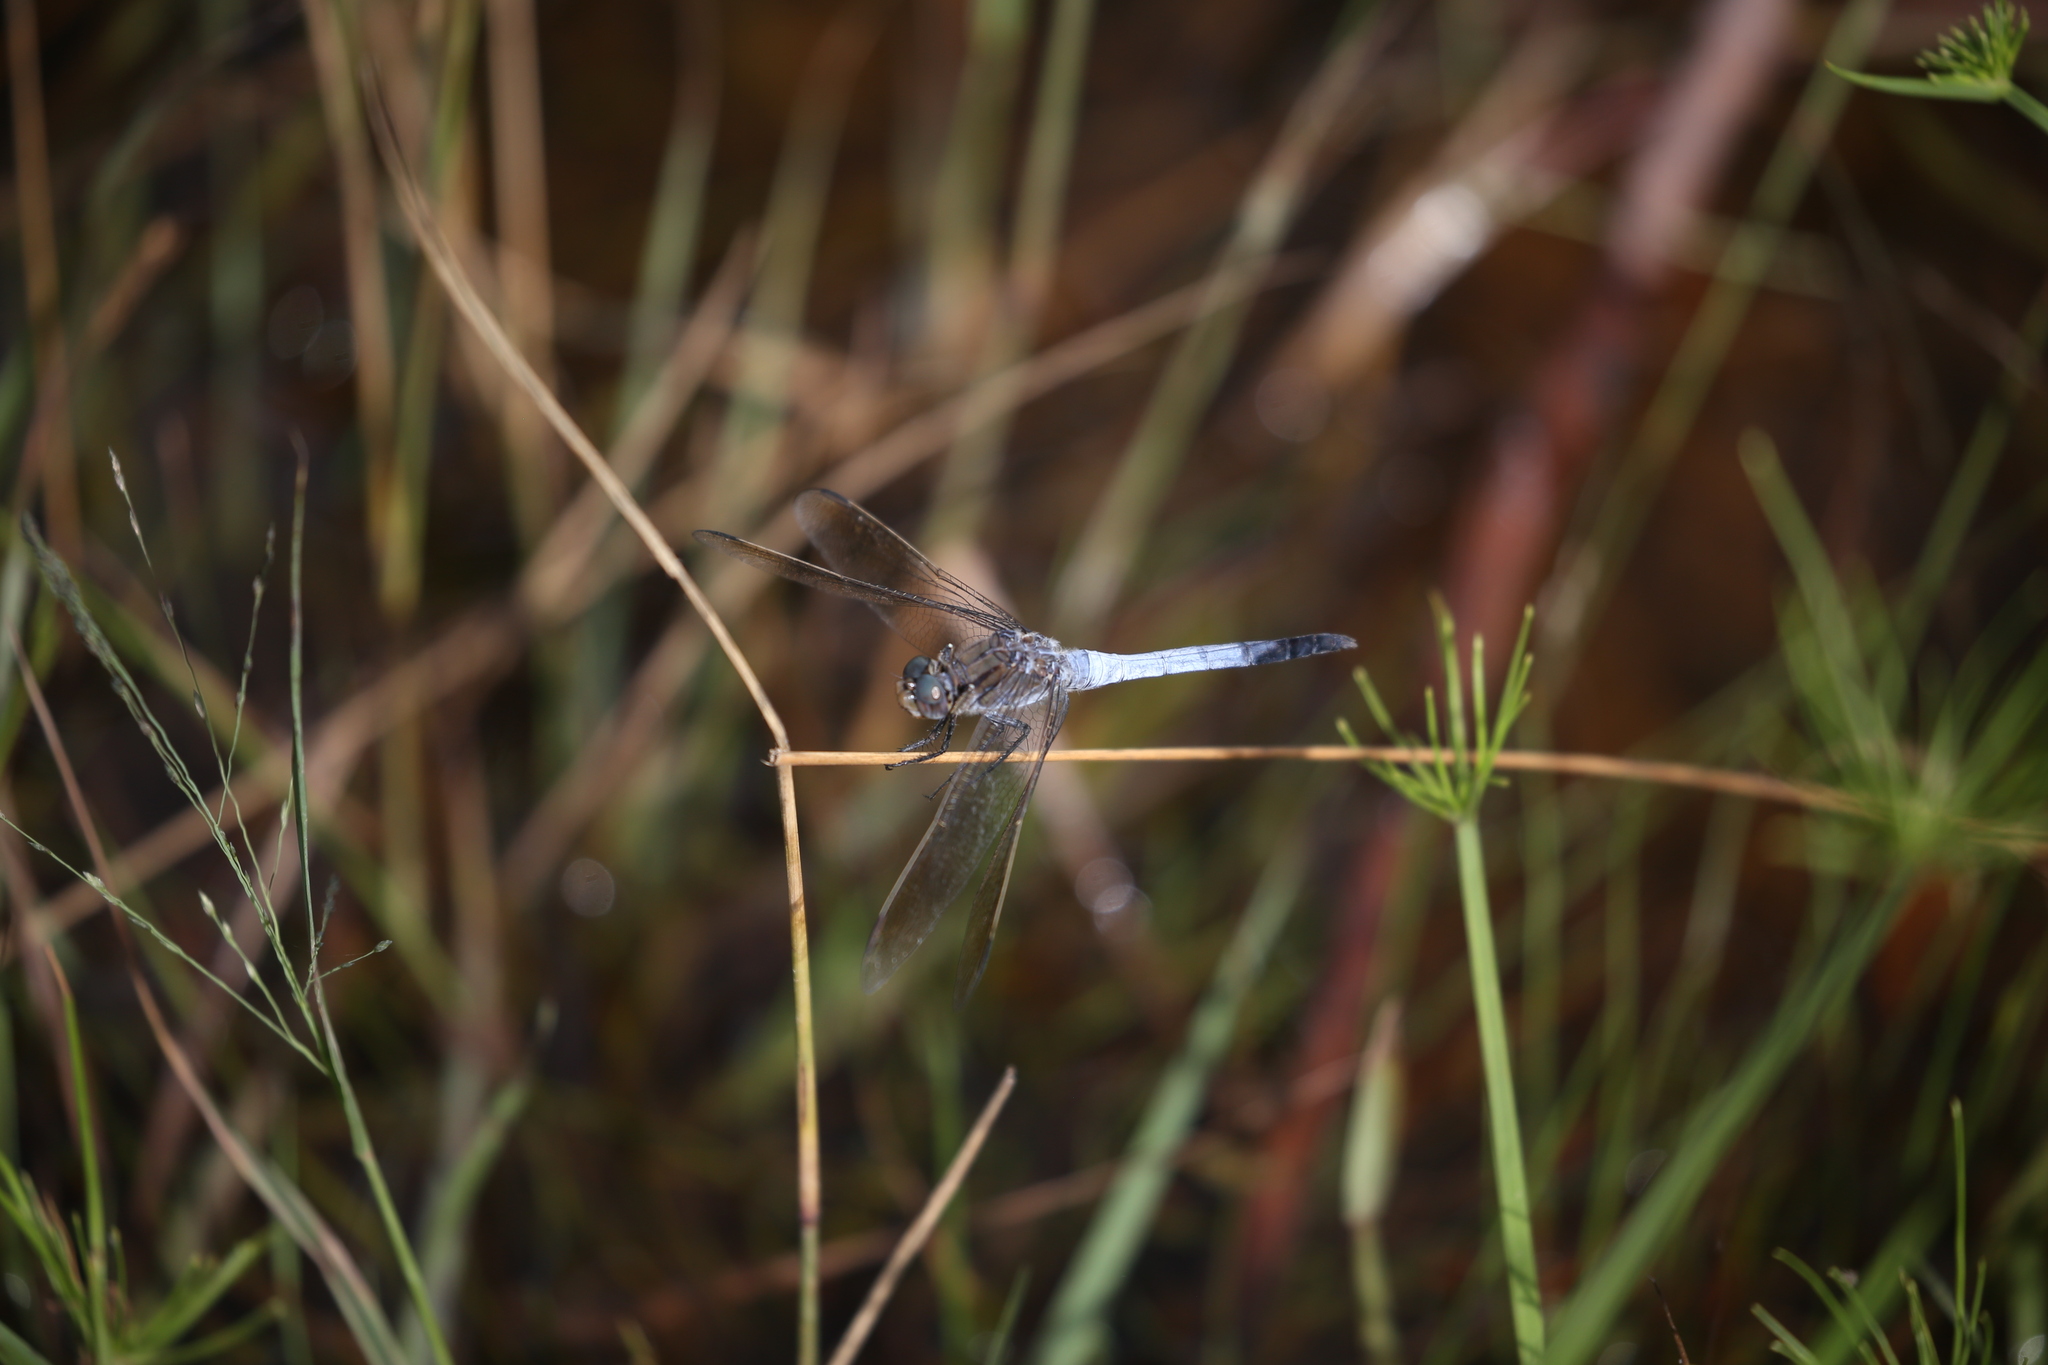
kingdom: Animalia
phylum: Arthropoda
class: Insecta
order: Odonata
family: Libellulidae
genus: Orthetrum
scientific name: Orthetrum caledonicum
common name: Blue skimmer
